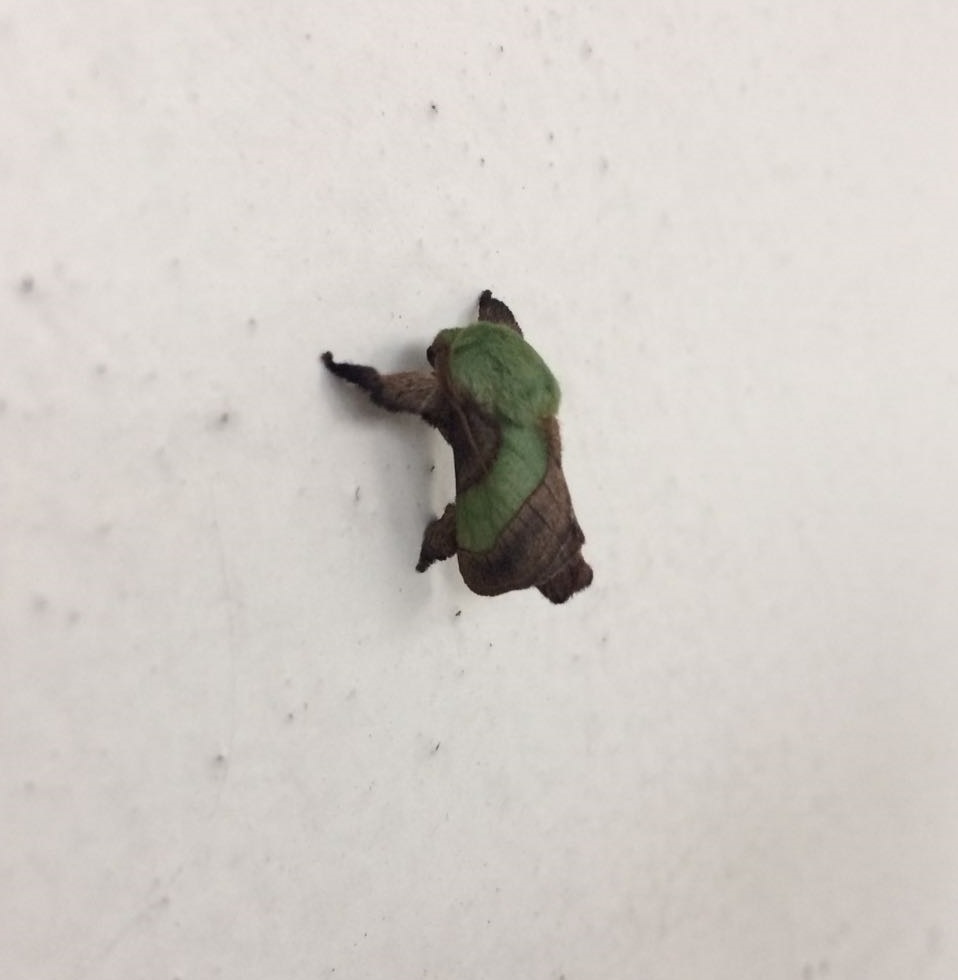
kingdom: Animalia
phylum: Arthropoda
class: Insecta
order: Lepidoptera
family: Limacodidae
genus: Parasa
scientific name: Parasa minima
